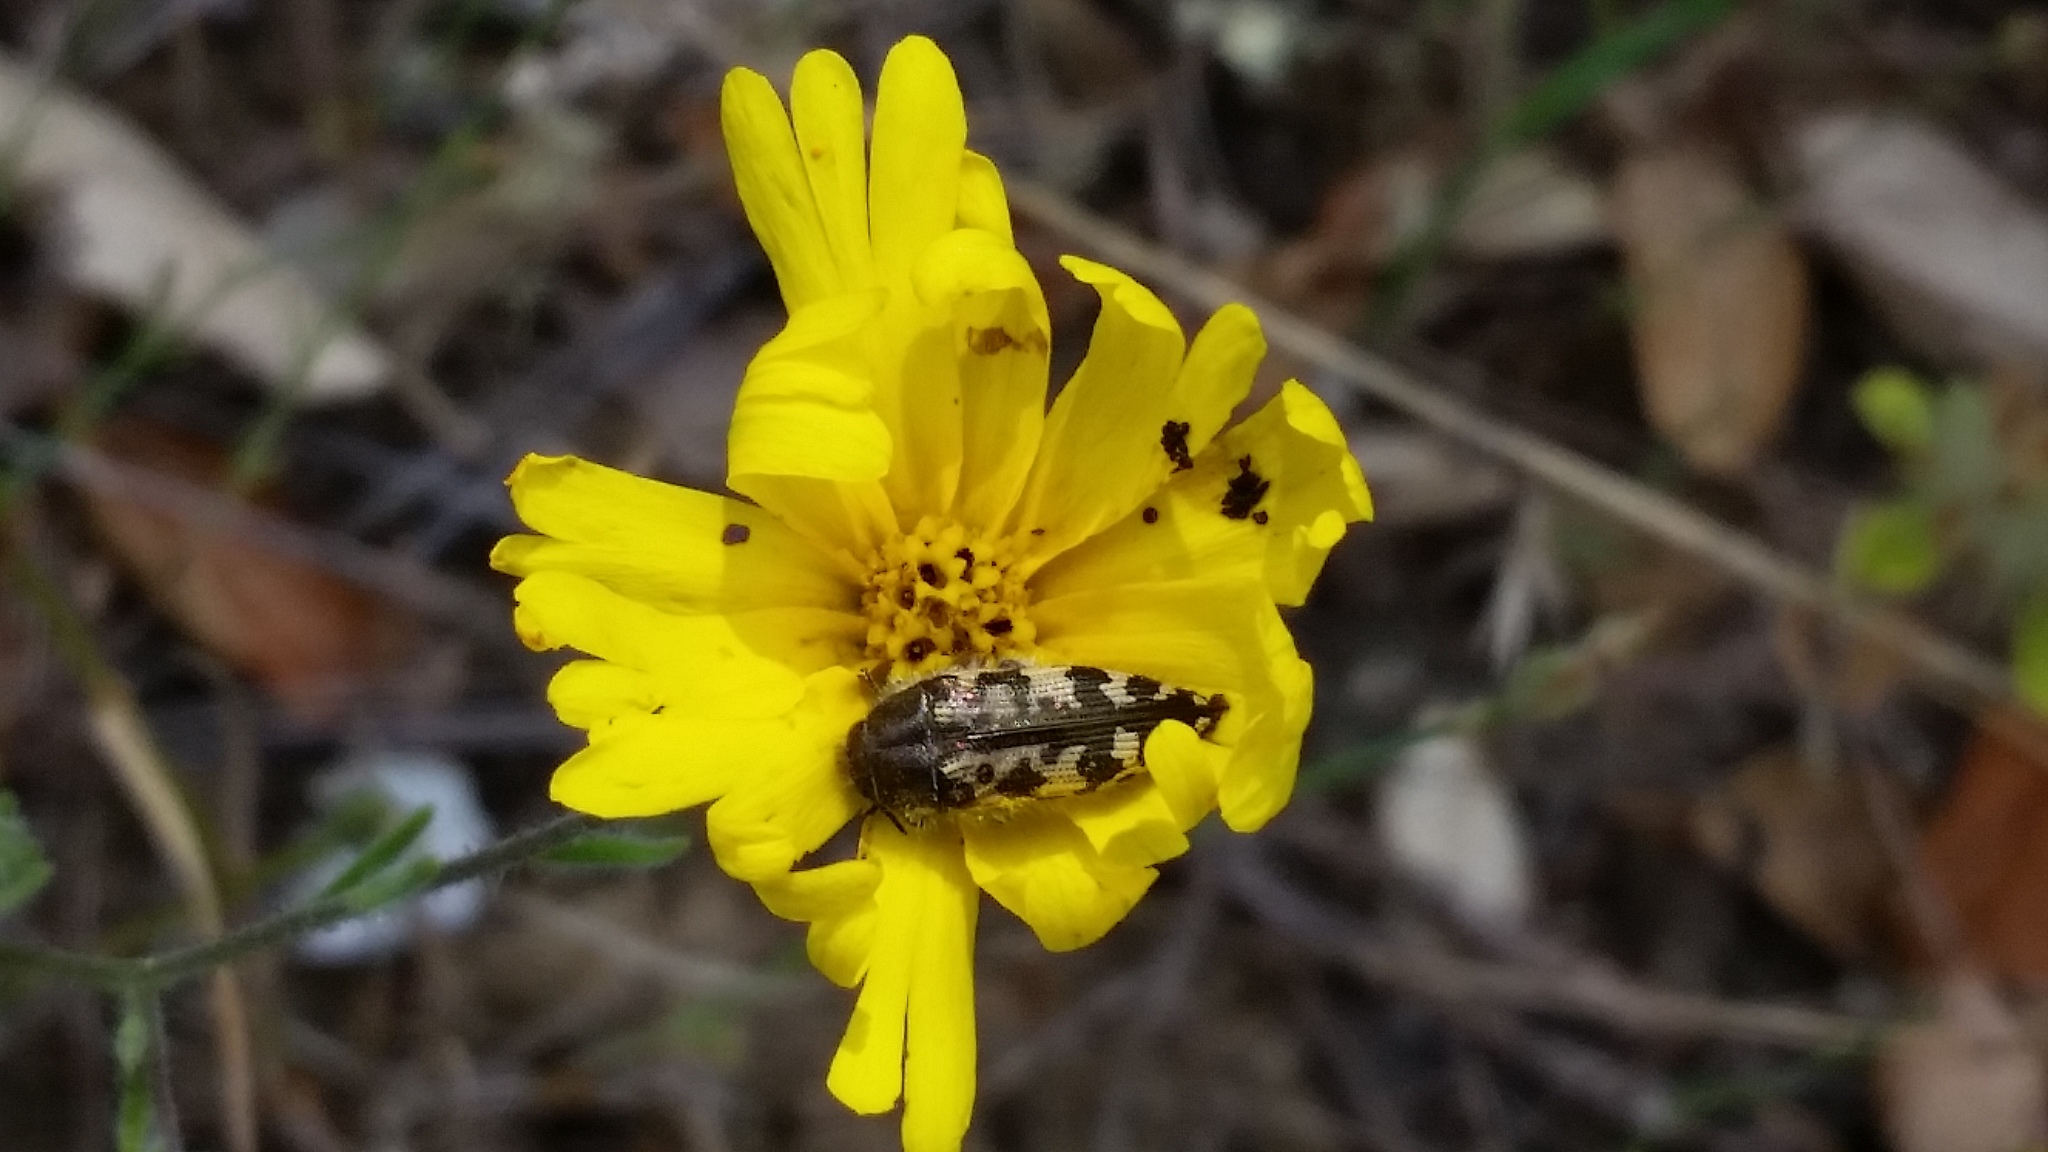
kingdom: Animalia
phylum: Arthropoda
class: Insecta
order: Coleoptera
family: Buprestidae
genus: Acmaeodera
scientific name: Acmaeodera hepburnii
